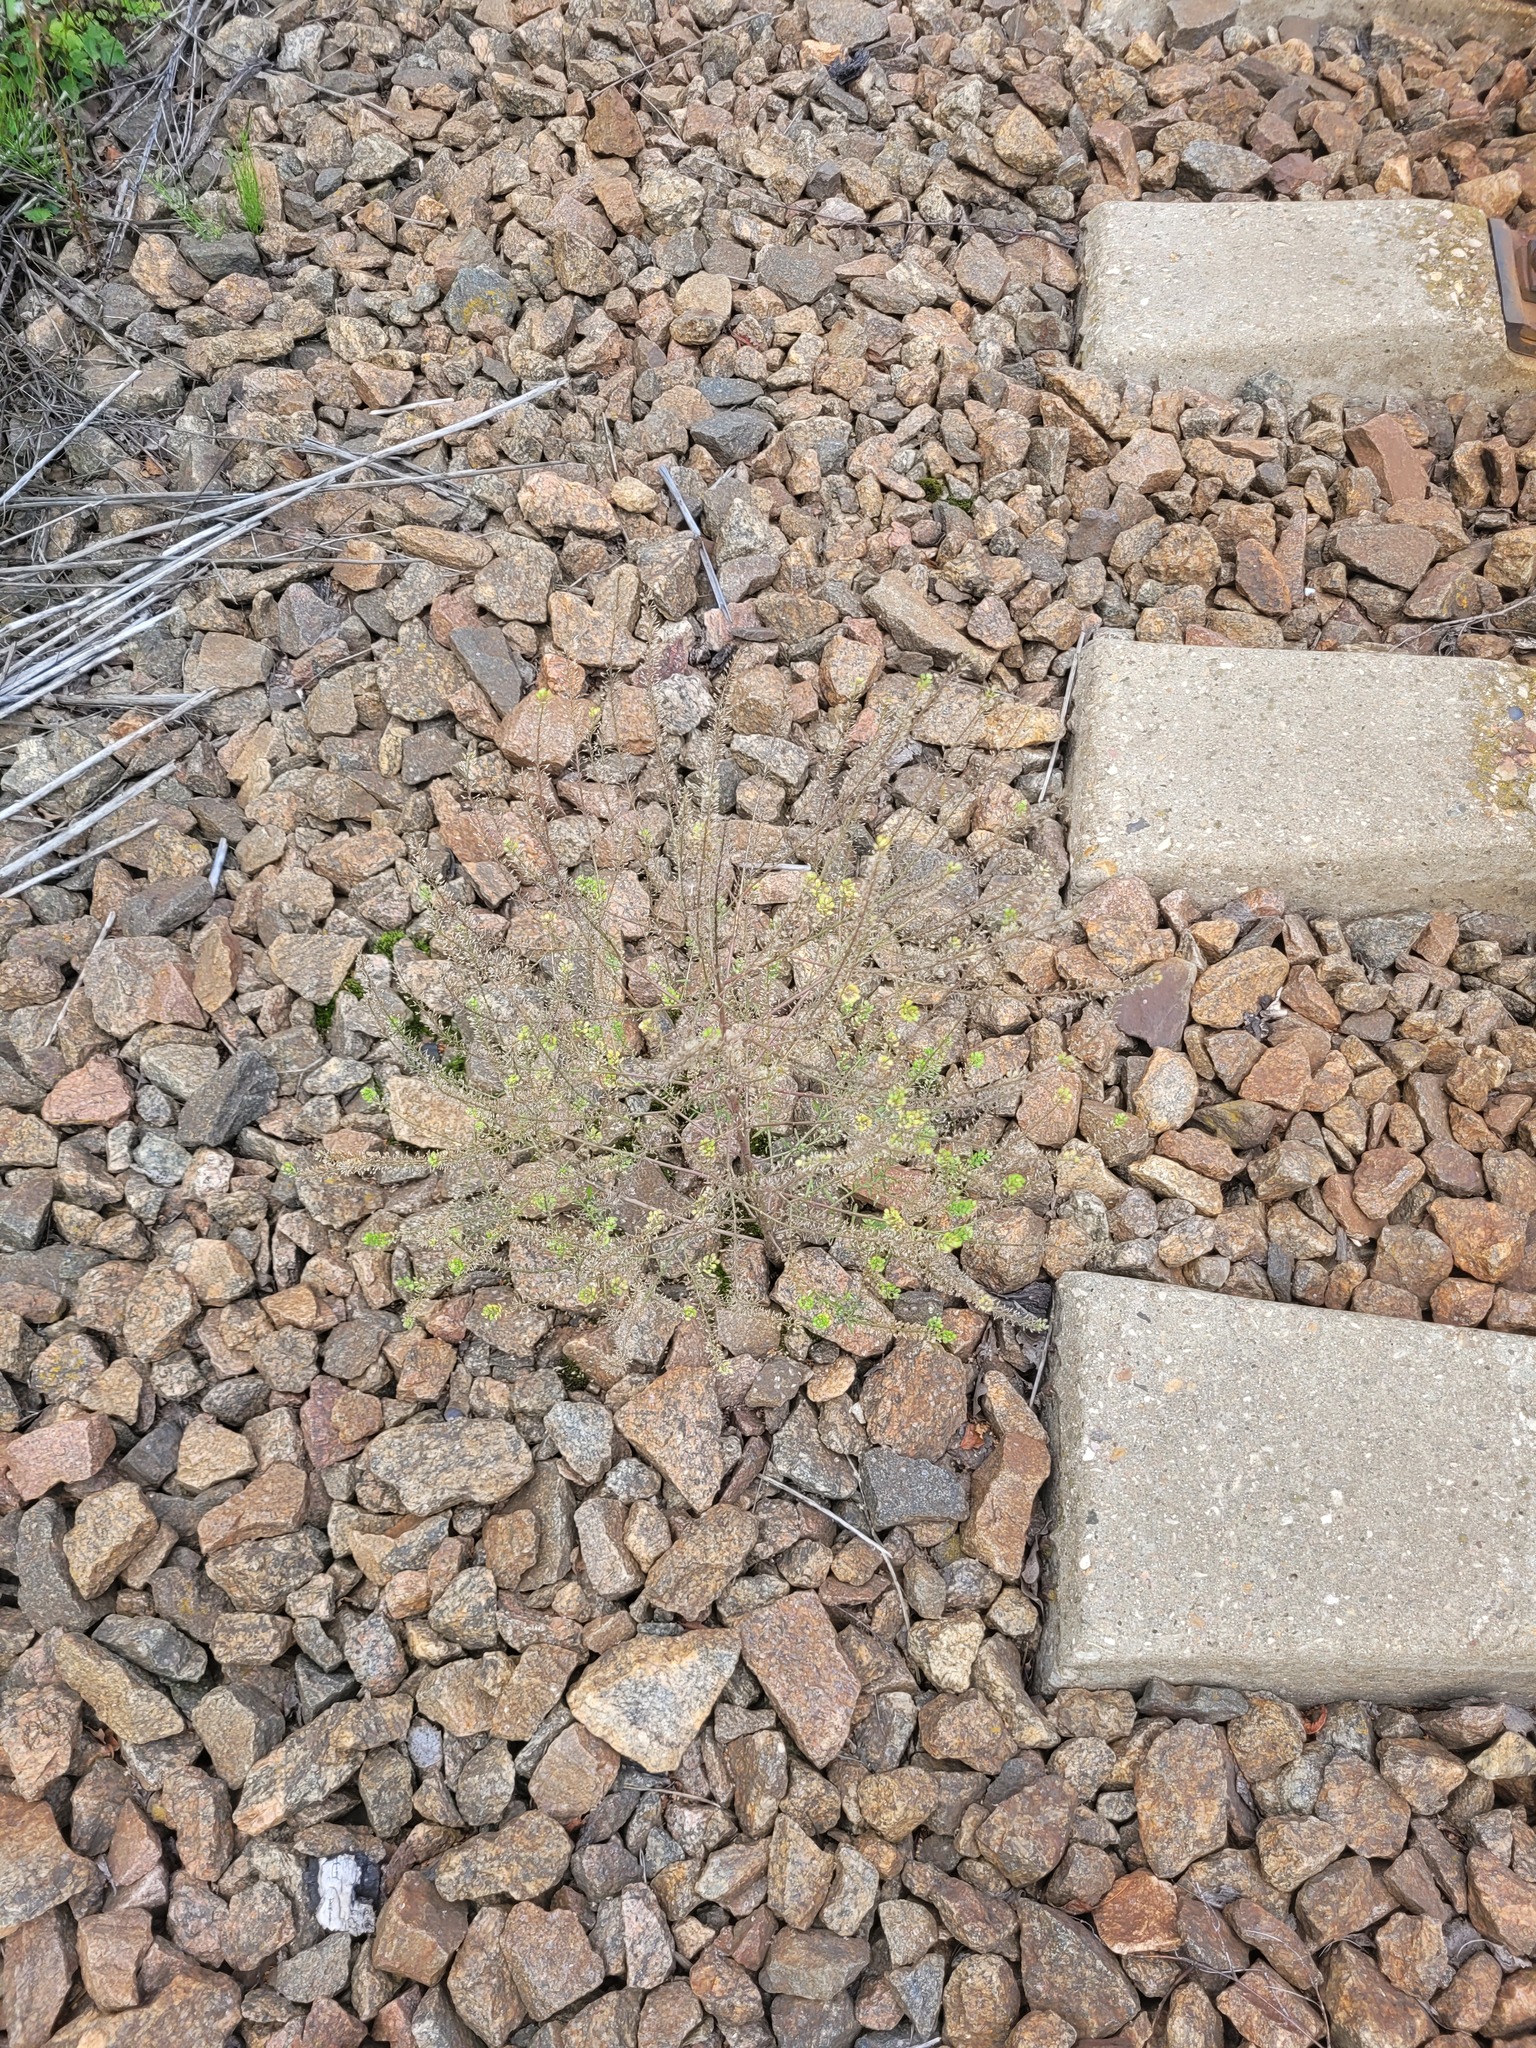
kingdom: Plantae
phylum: Tracheophyta
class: Magnoliopsida
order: Brassicales
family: Brassicaceae
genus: Lepidium
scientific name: Lepidium densiflorum
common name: Miner's pepperwort
